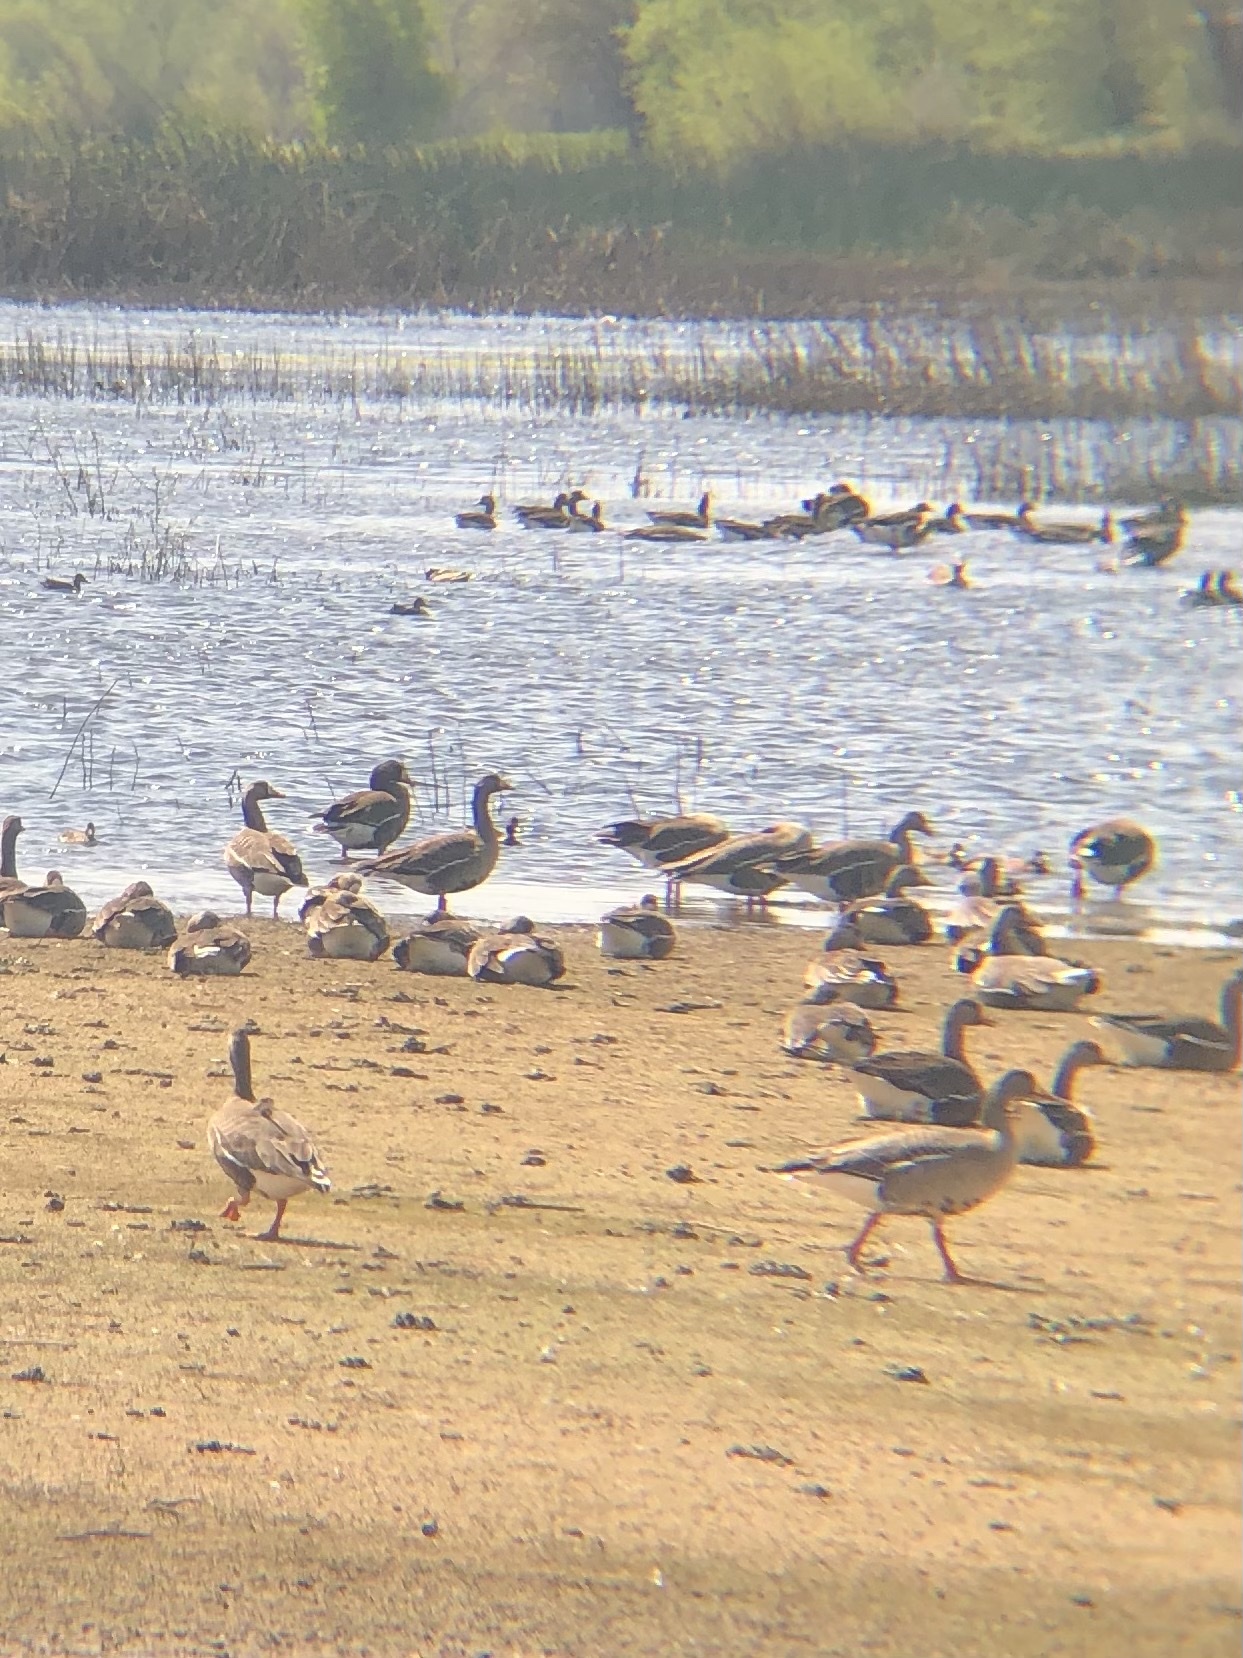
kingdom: Animalia
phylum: Chordata
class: Aves
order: Anseriformes
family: Anatidae
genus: Anser
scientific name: Anser albifrons
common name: Greater white-fronted goose
